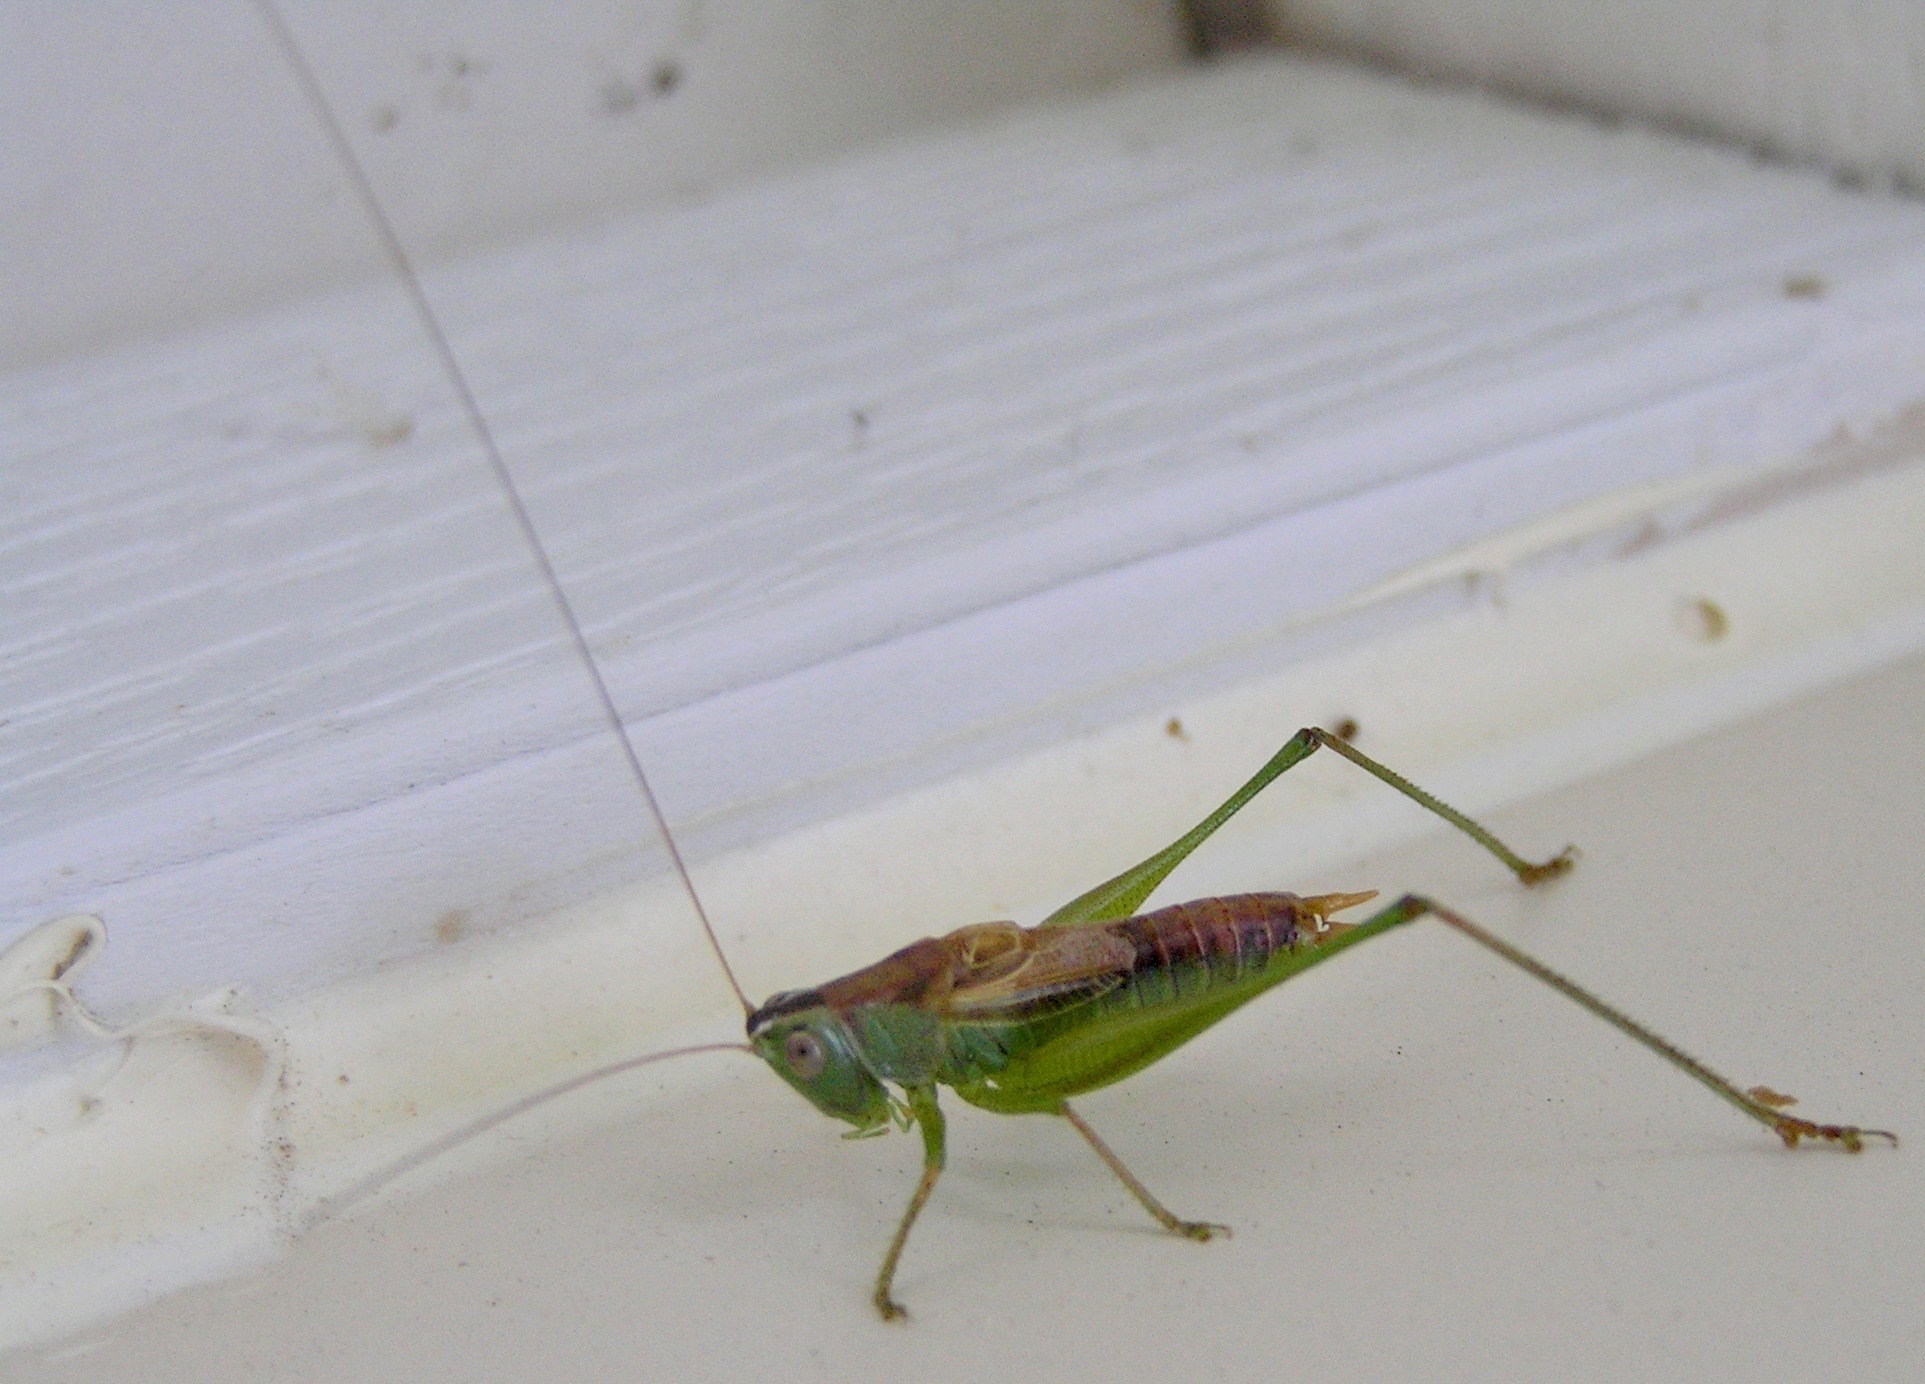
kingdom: Animalia
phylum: Arthropoda
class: Insecta
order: Orthoptera
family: Tettigoniidae
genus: Conocephalus
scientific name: Conocephalus strictus
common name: Straight-lanced katydid
